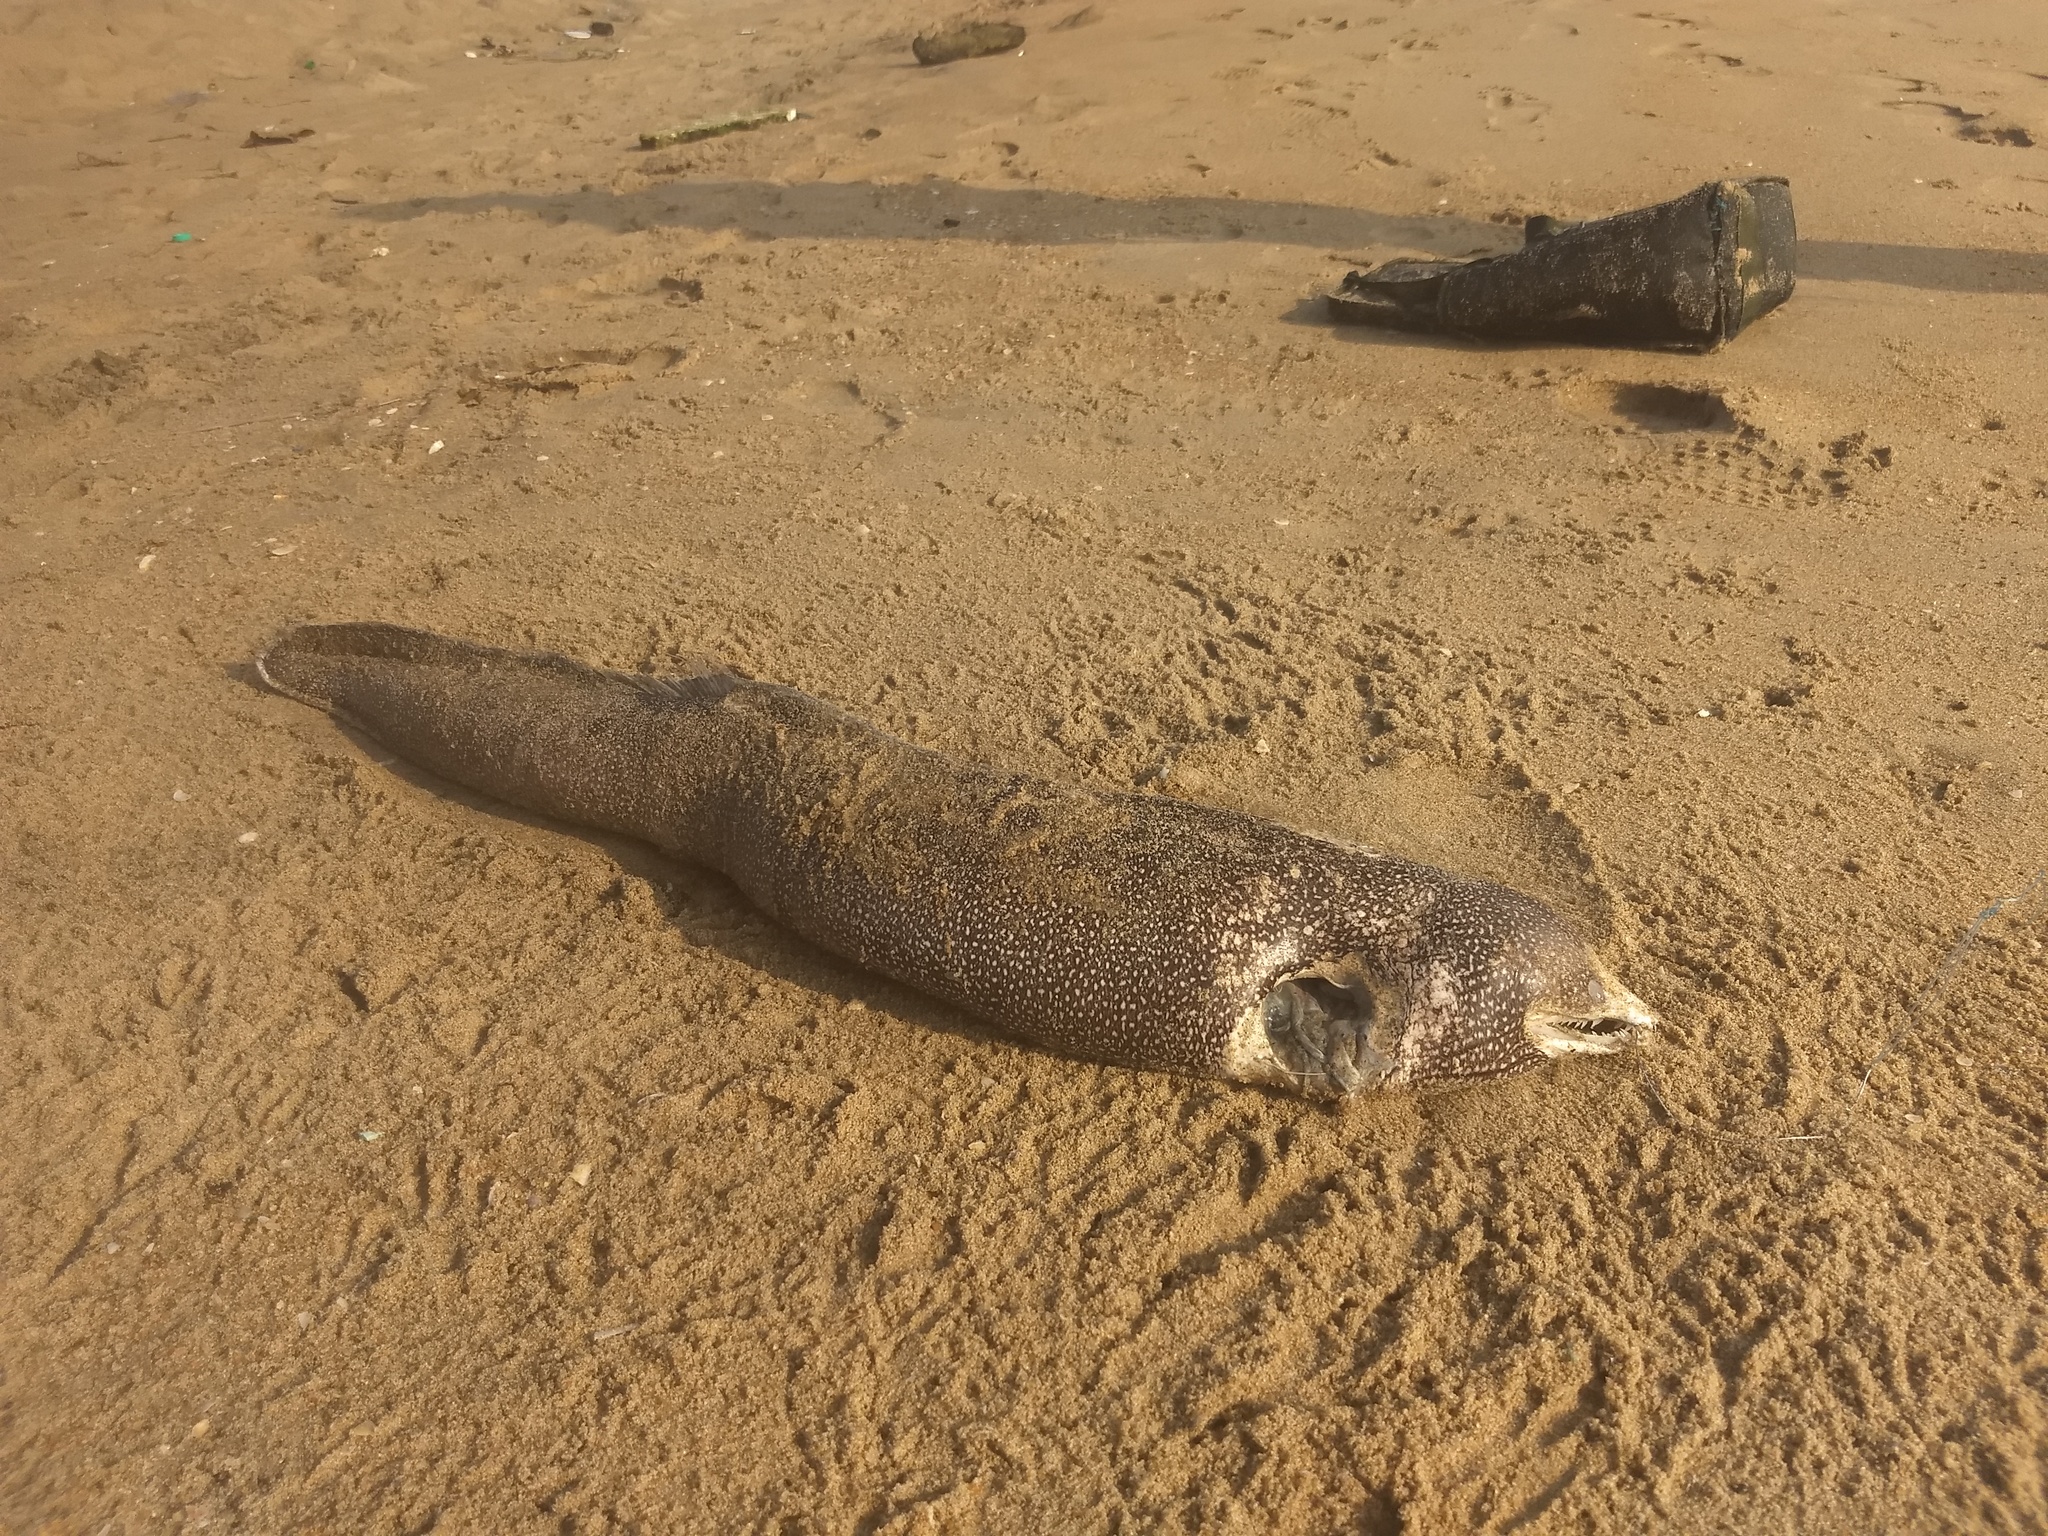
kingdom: Animalia
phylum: Chordata
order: Anguilliformes
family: Muraenidae
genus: Gymnothorax
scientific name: Gymnothorax meleagris
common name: Guineafowl moray
